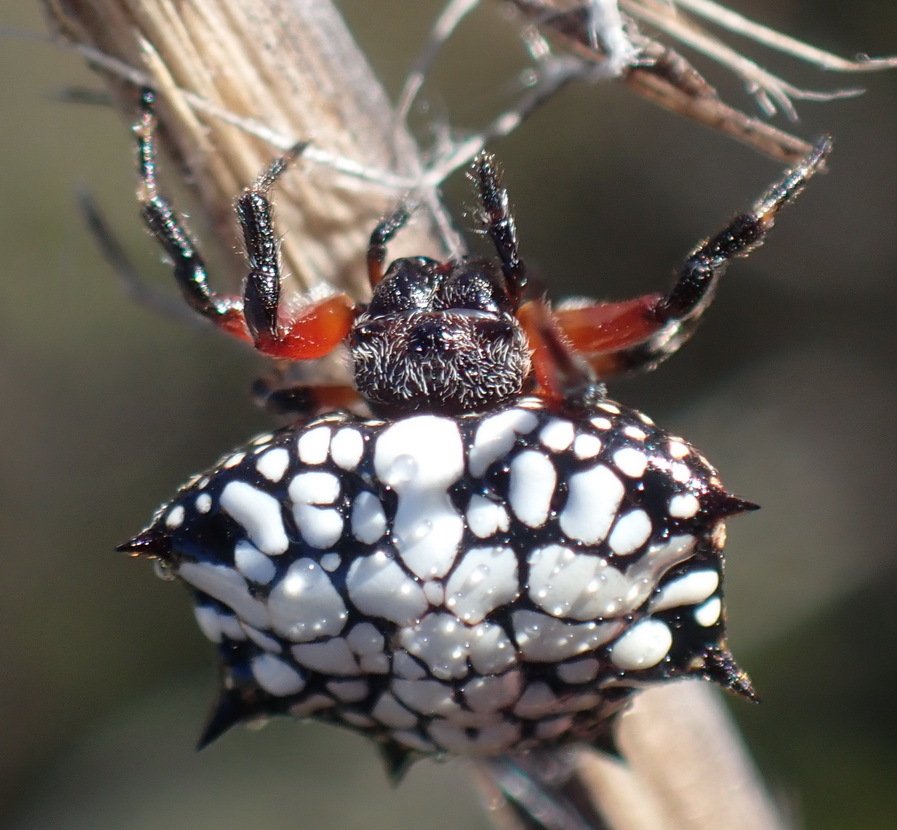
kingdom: Animalia
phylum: Arthropoda
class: Arachnida
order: Araneae
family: Araneidae
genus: Isoxya
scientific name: Isoxya cicatricosa
